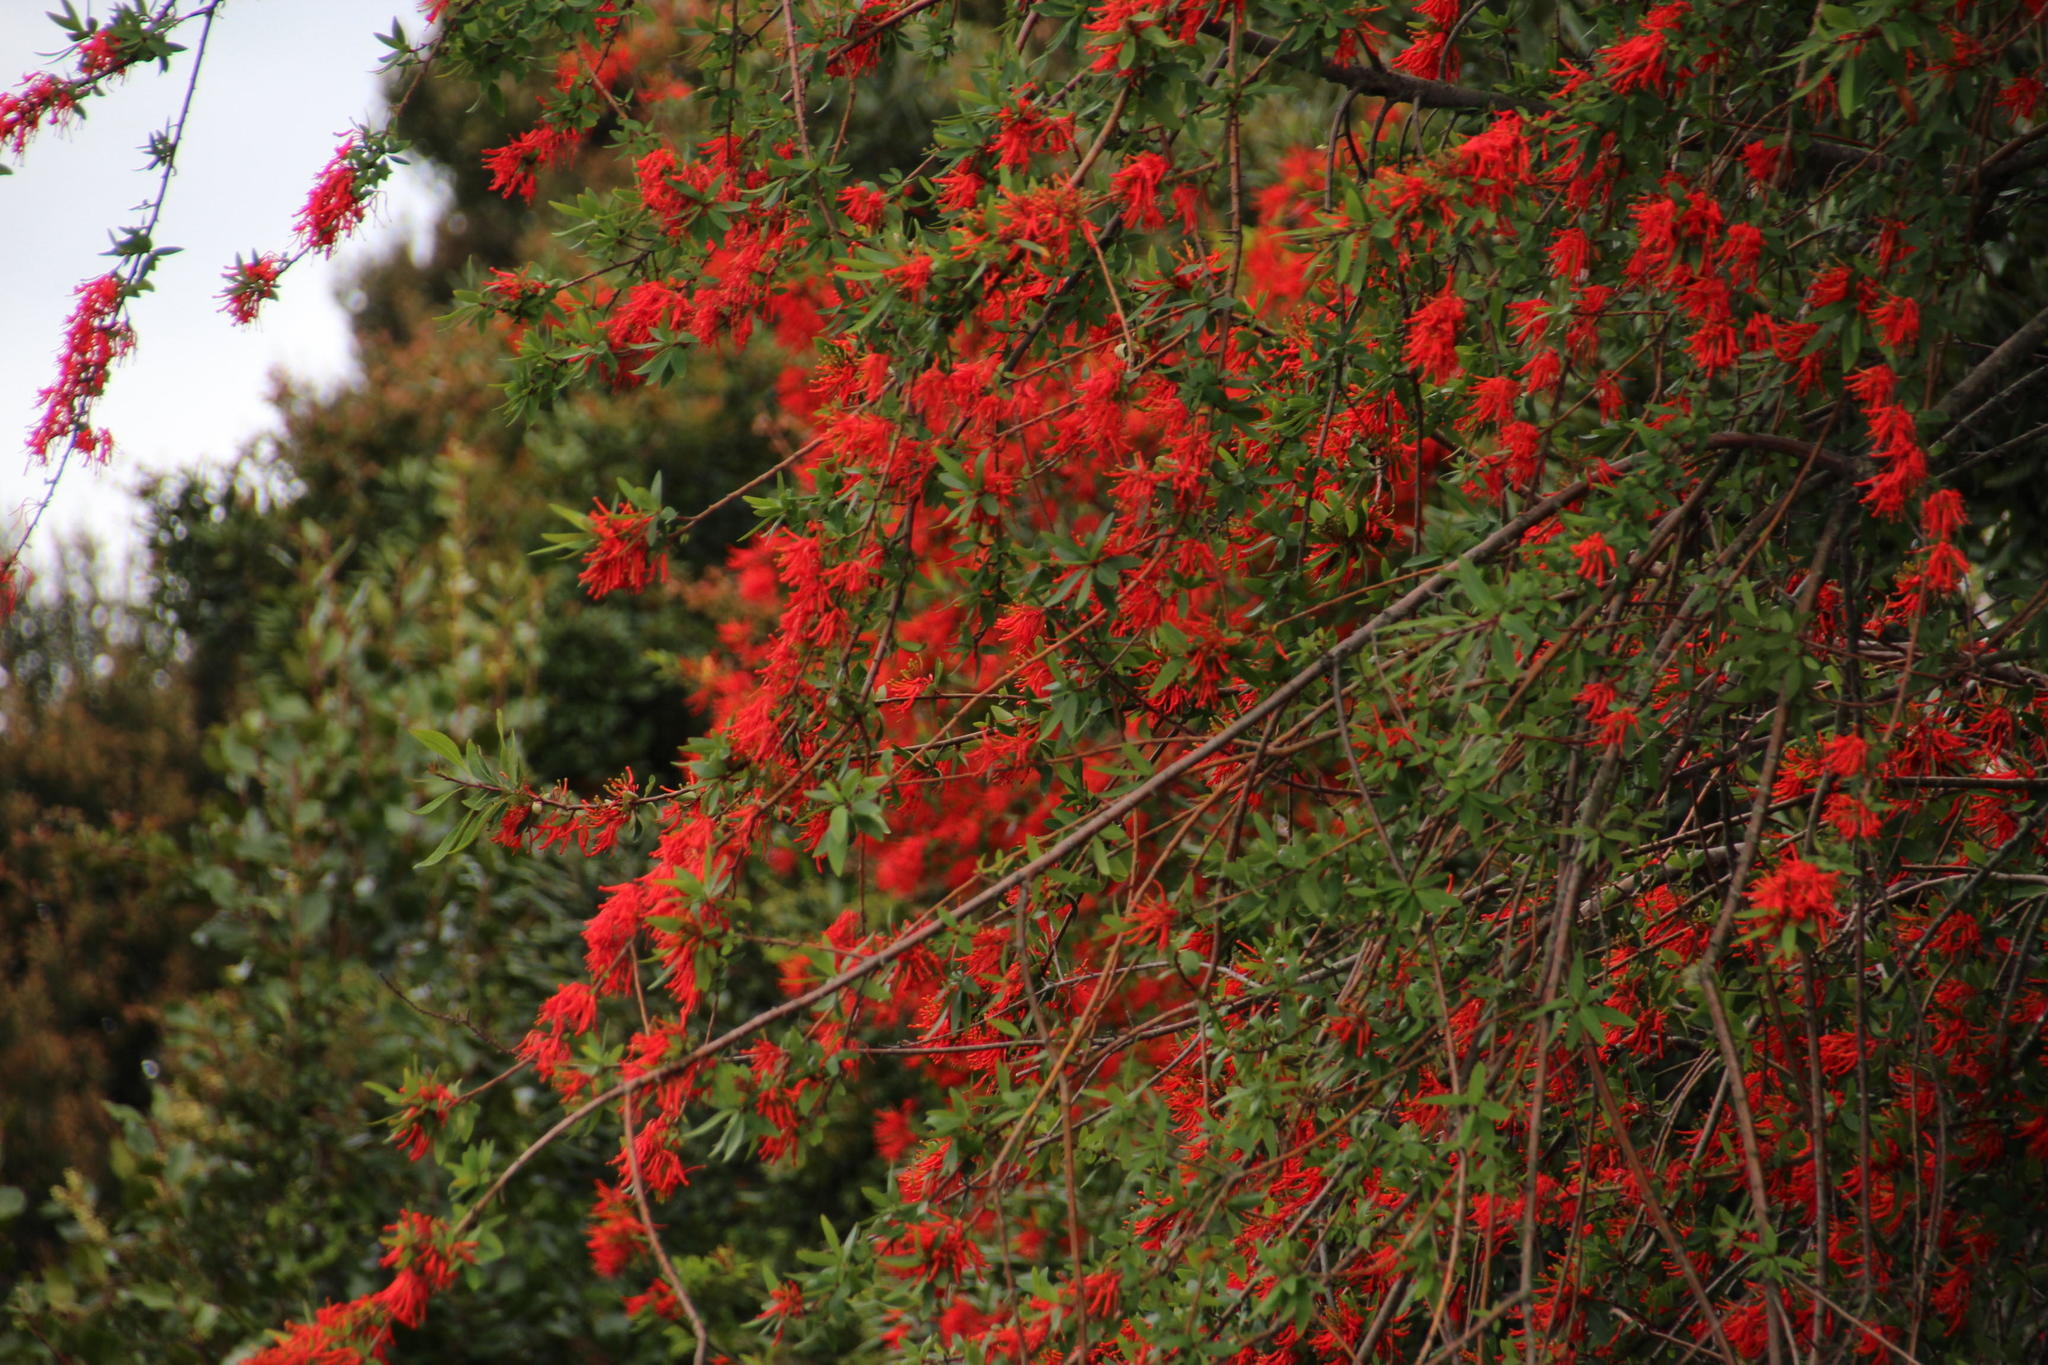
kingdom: Plantae
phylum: Tracheophyta
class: Magnoliopsida
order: Proteales
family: Proteaceae
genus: Embothrium
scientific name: Embothrium coccineum
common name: Chilean firebush
